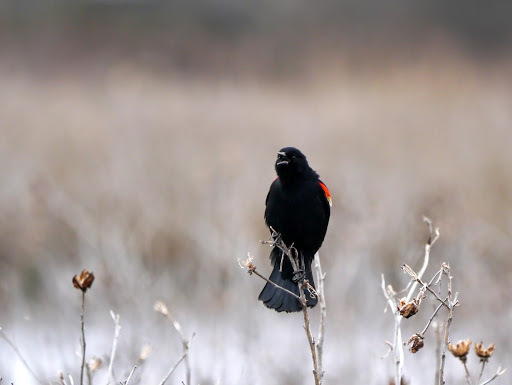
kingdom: Animalia
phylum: Chordata
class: Aves
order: Passeriformes
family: Icteridae
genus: Agelaius
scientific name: Agelaius phoeniceus
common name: Red-winged blackbird
